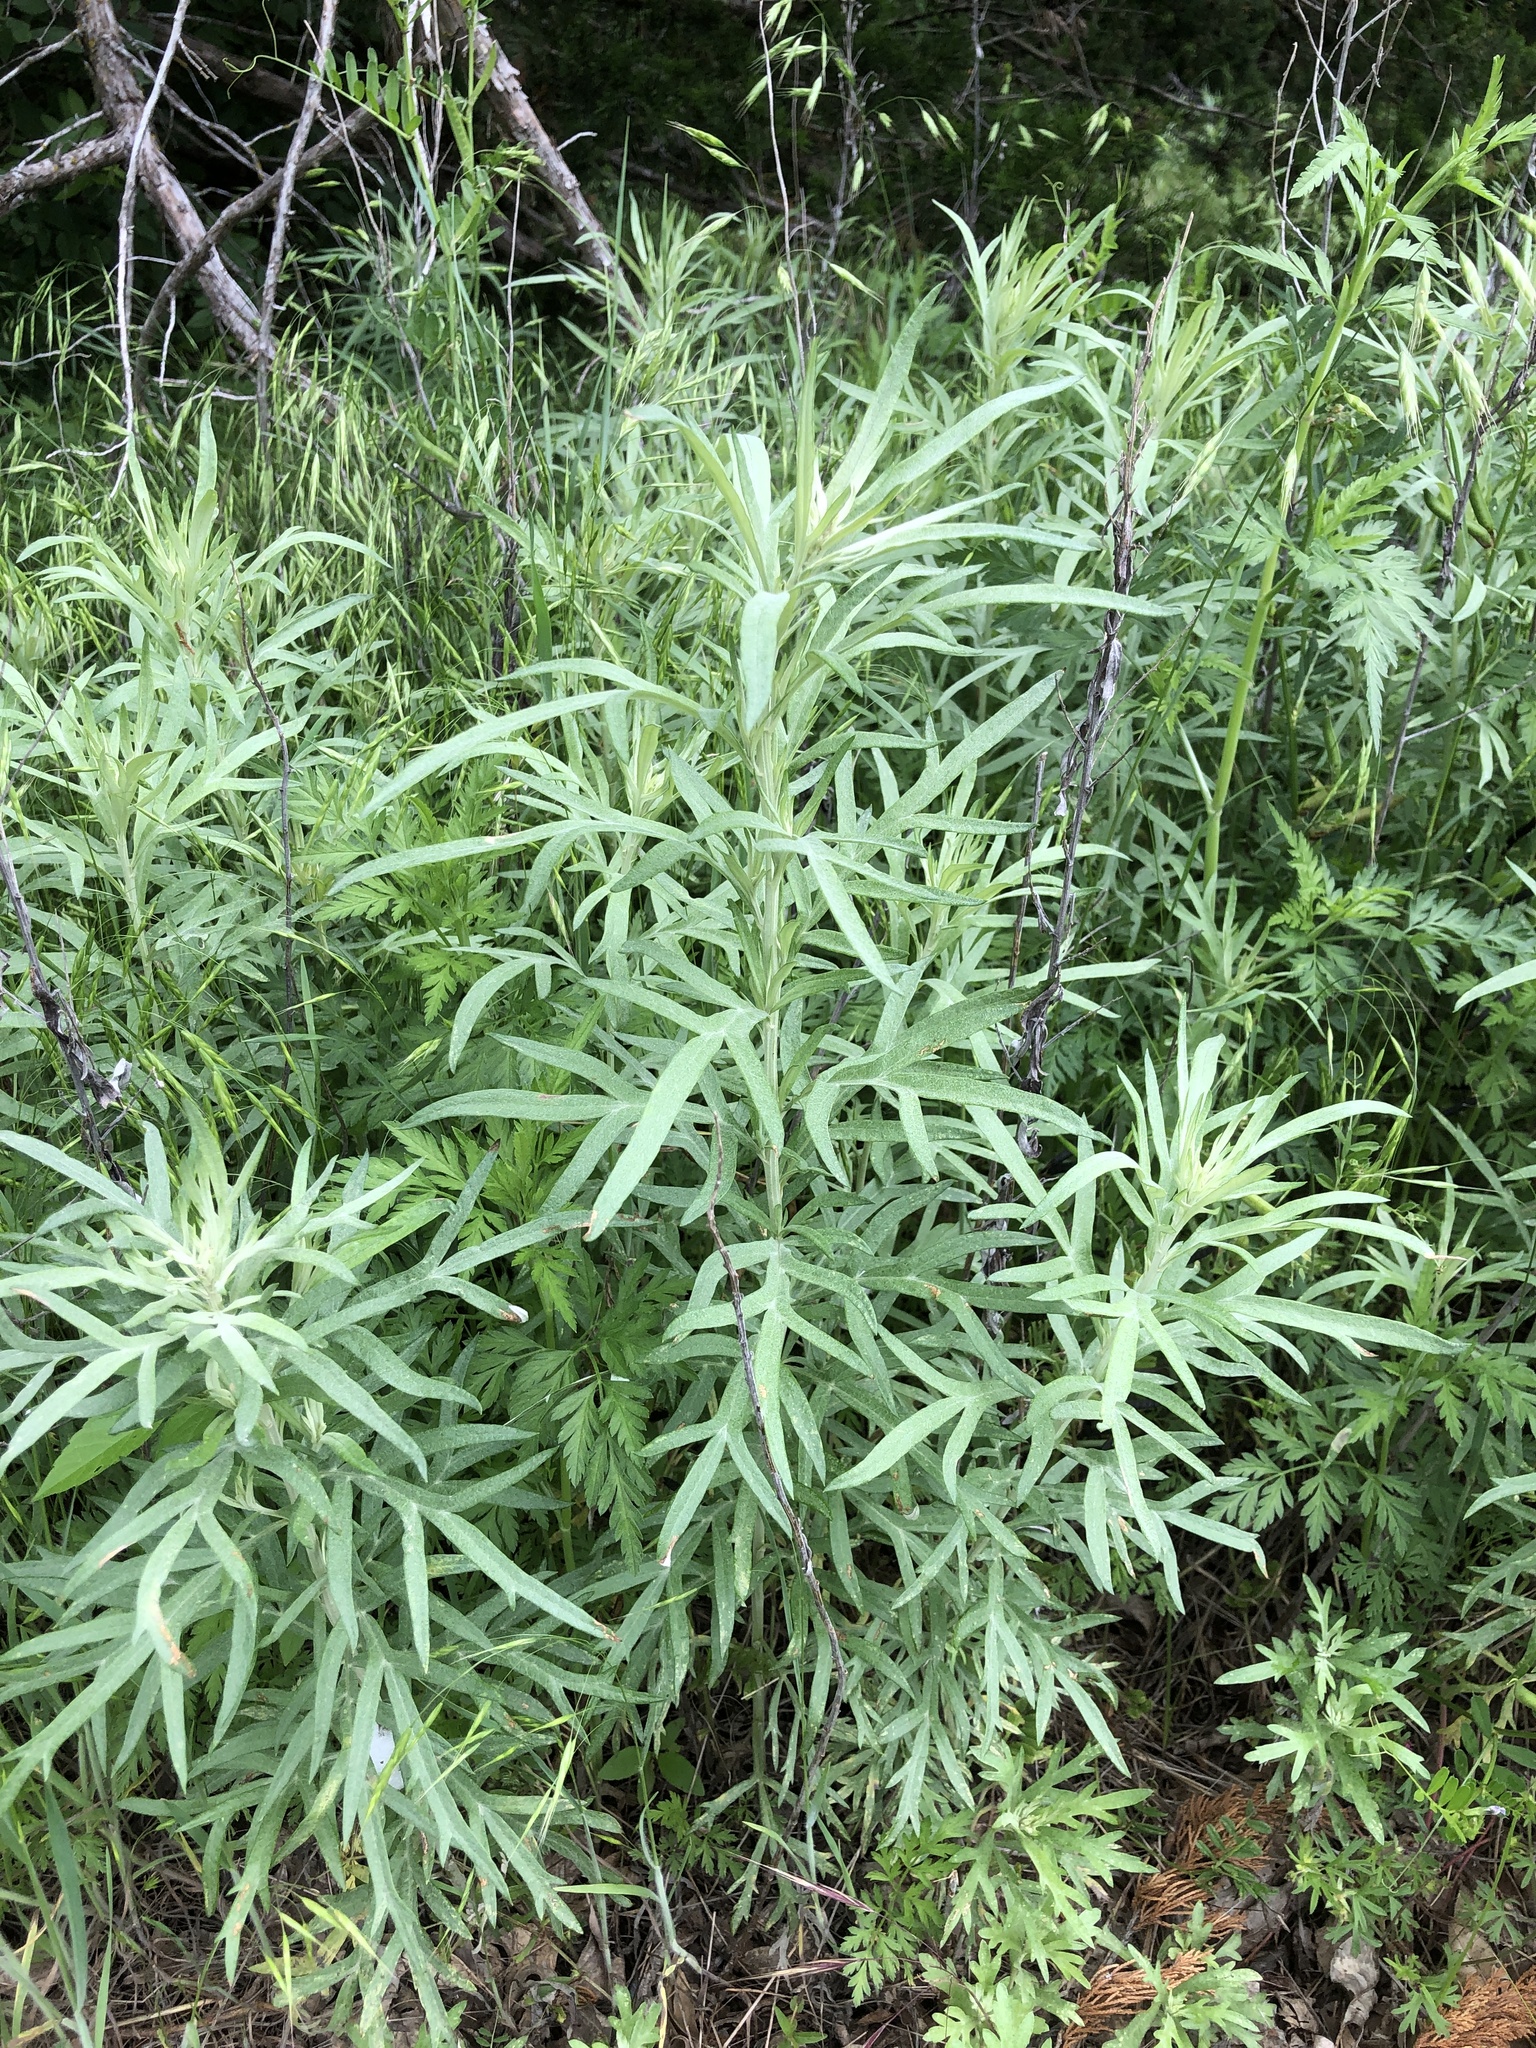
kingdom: Plantae
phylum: Tracheophyta
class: Magnoliopsida
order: Asterales
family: Asteraceae
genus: Ambrosia
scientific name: Ambrosia psilostachya
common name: Perennial ragweed
